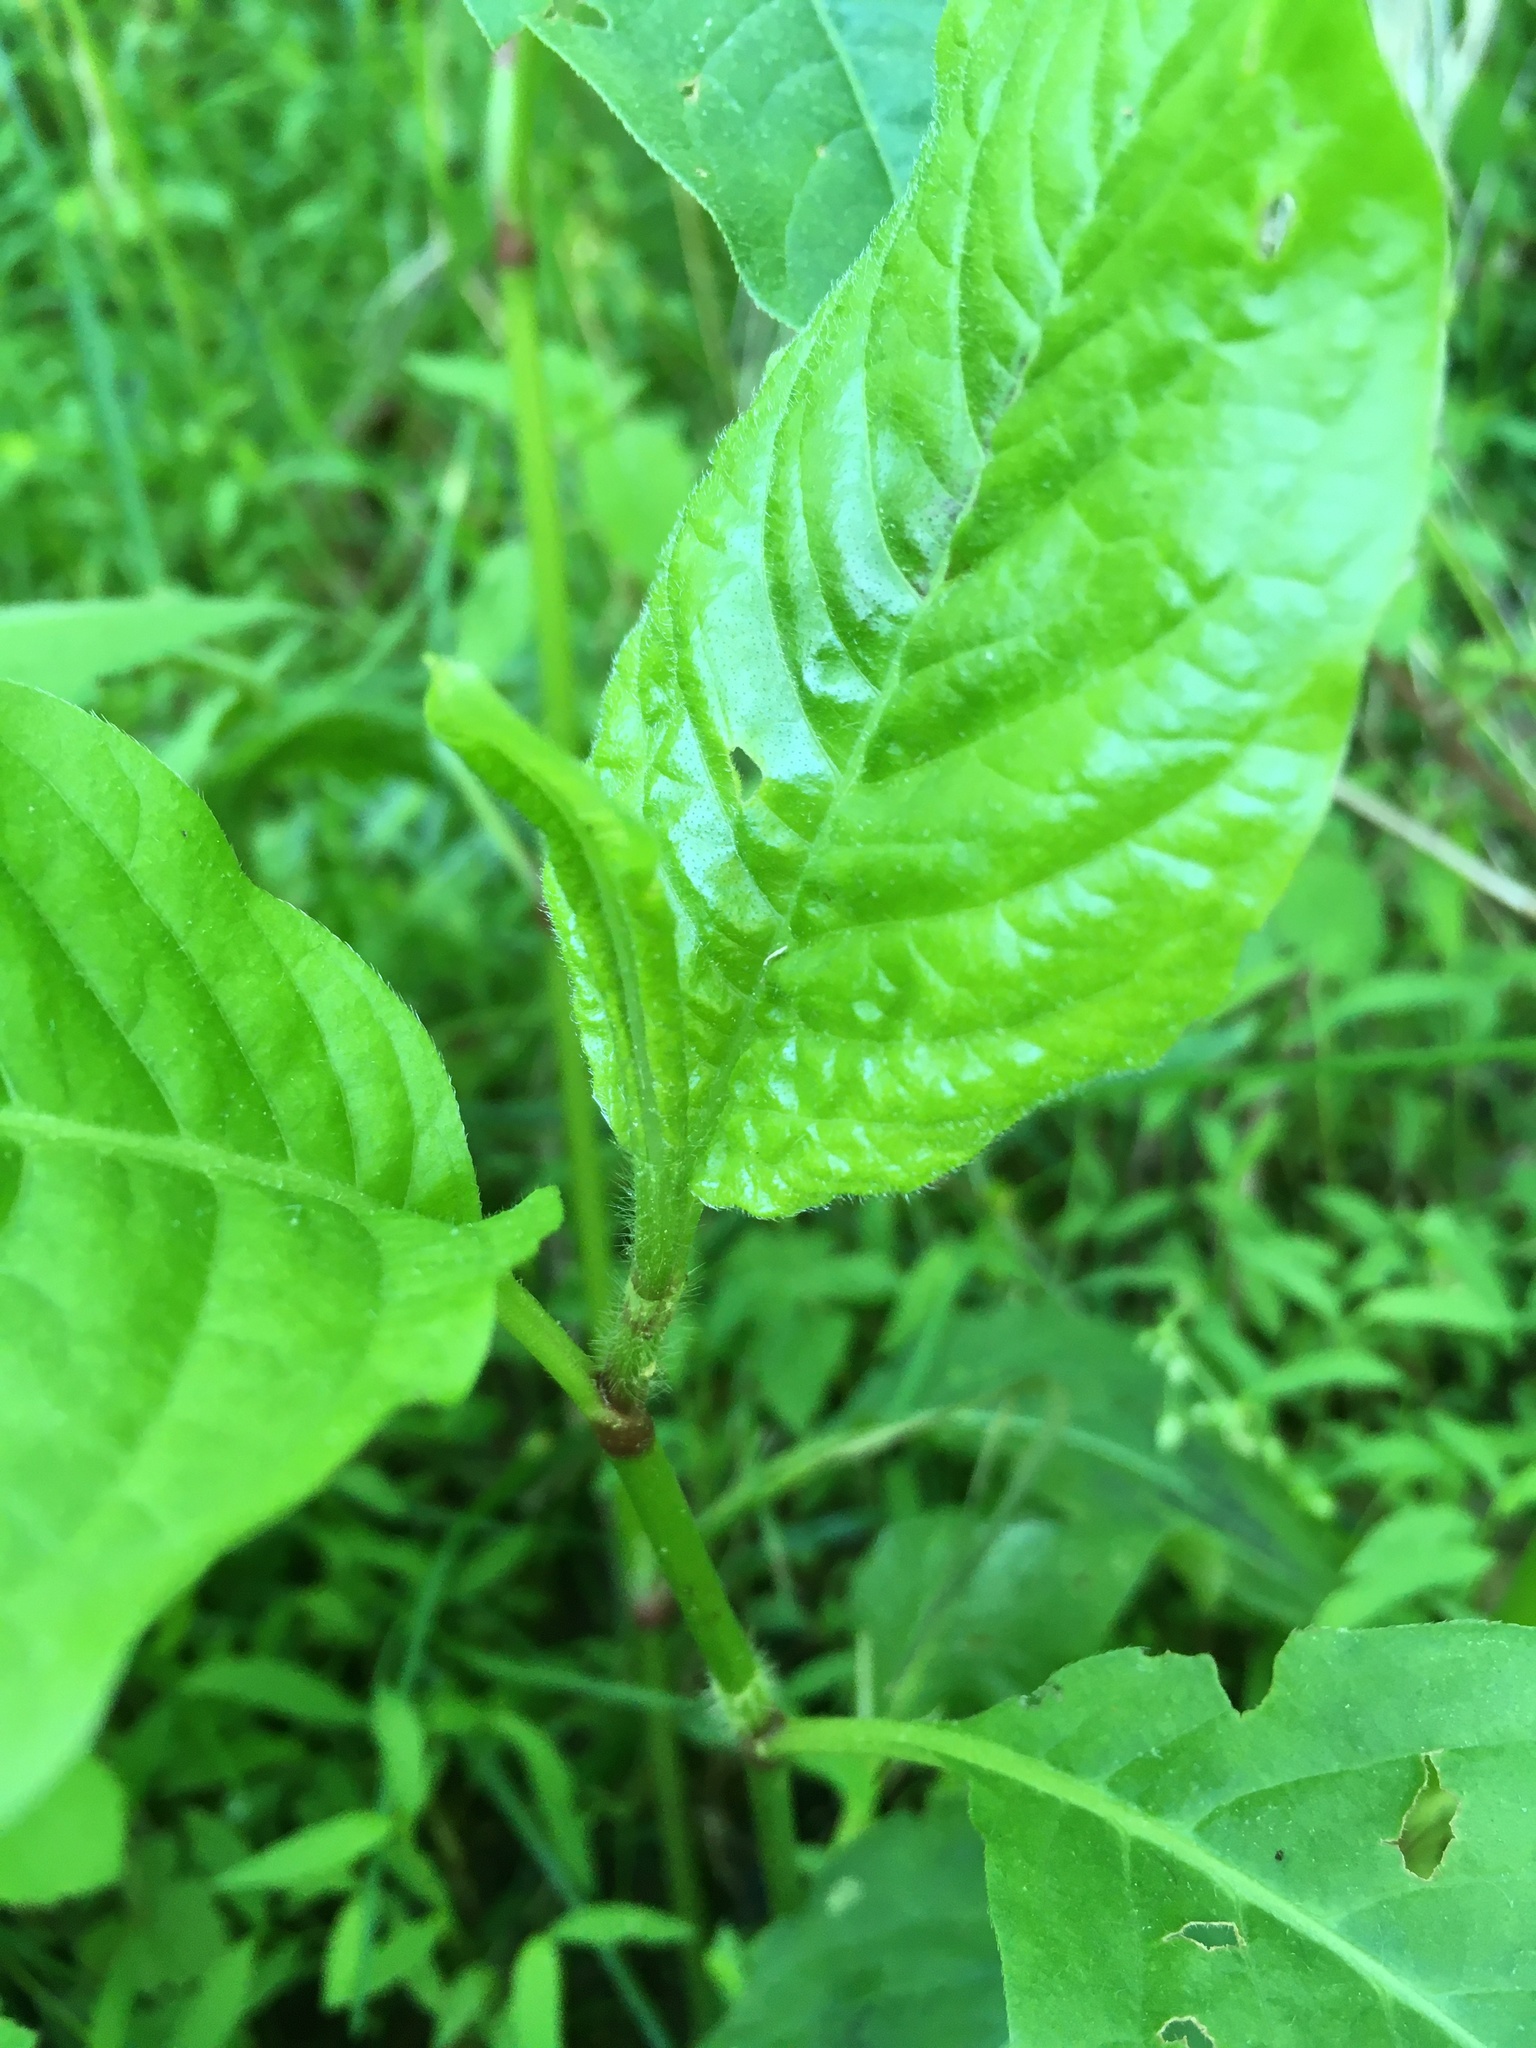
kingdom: Plantae
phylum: Tracheophyta
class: Magnoliopsida
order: Caryophyllales
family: Polygonaceae
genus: Persicaria
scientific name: Persicaria virginiana
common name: Jumpseed
